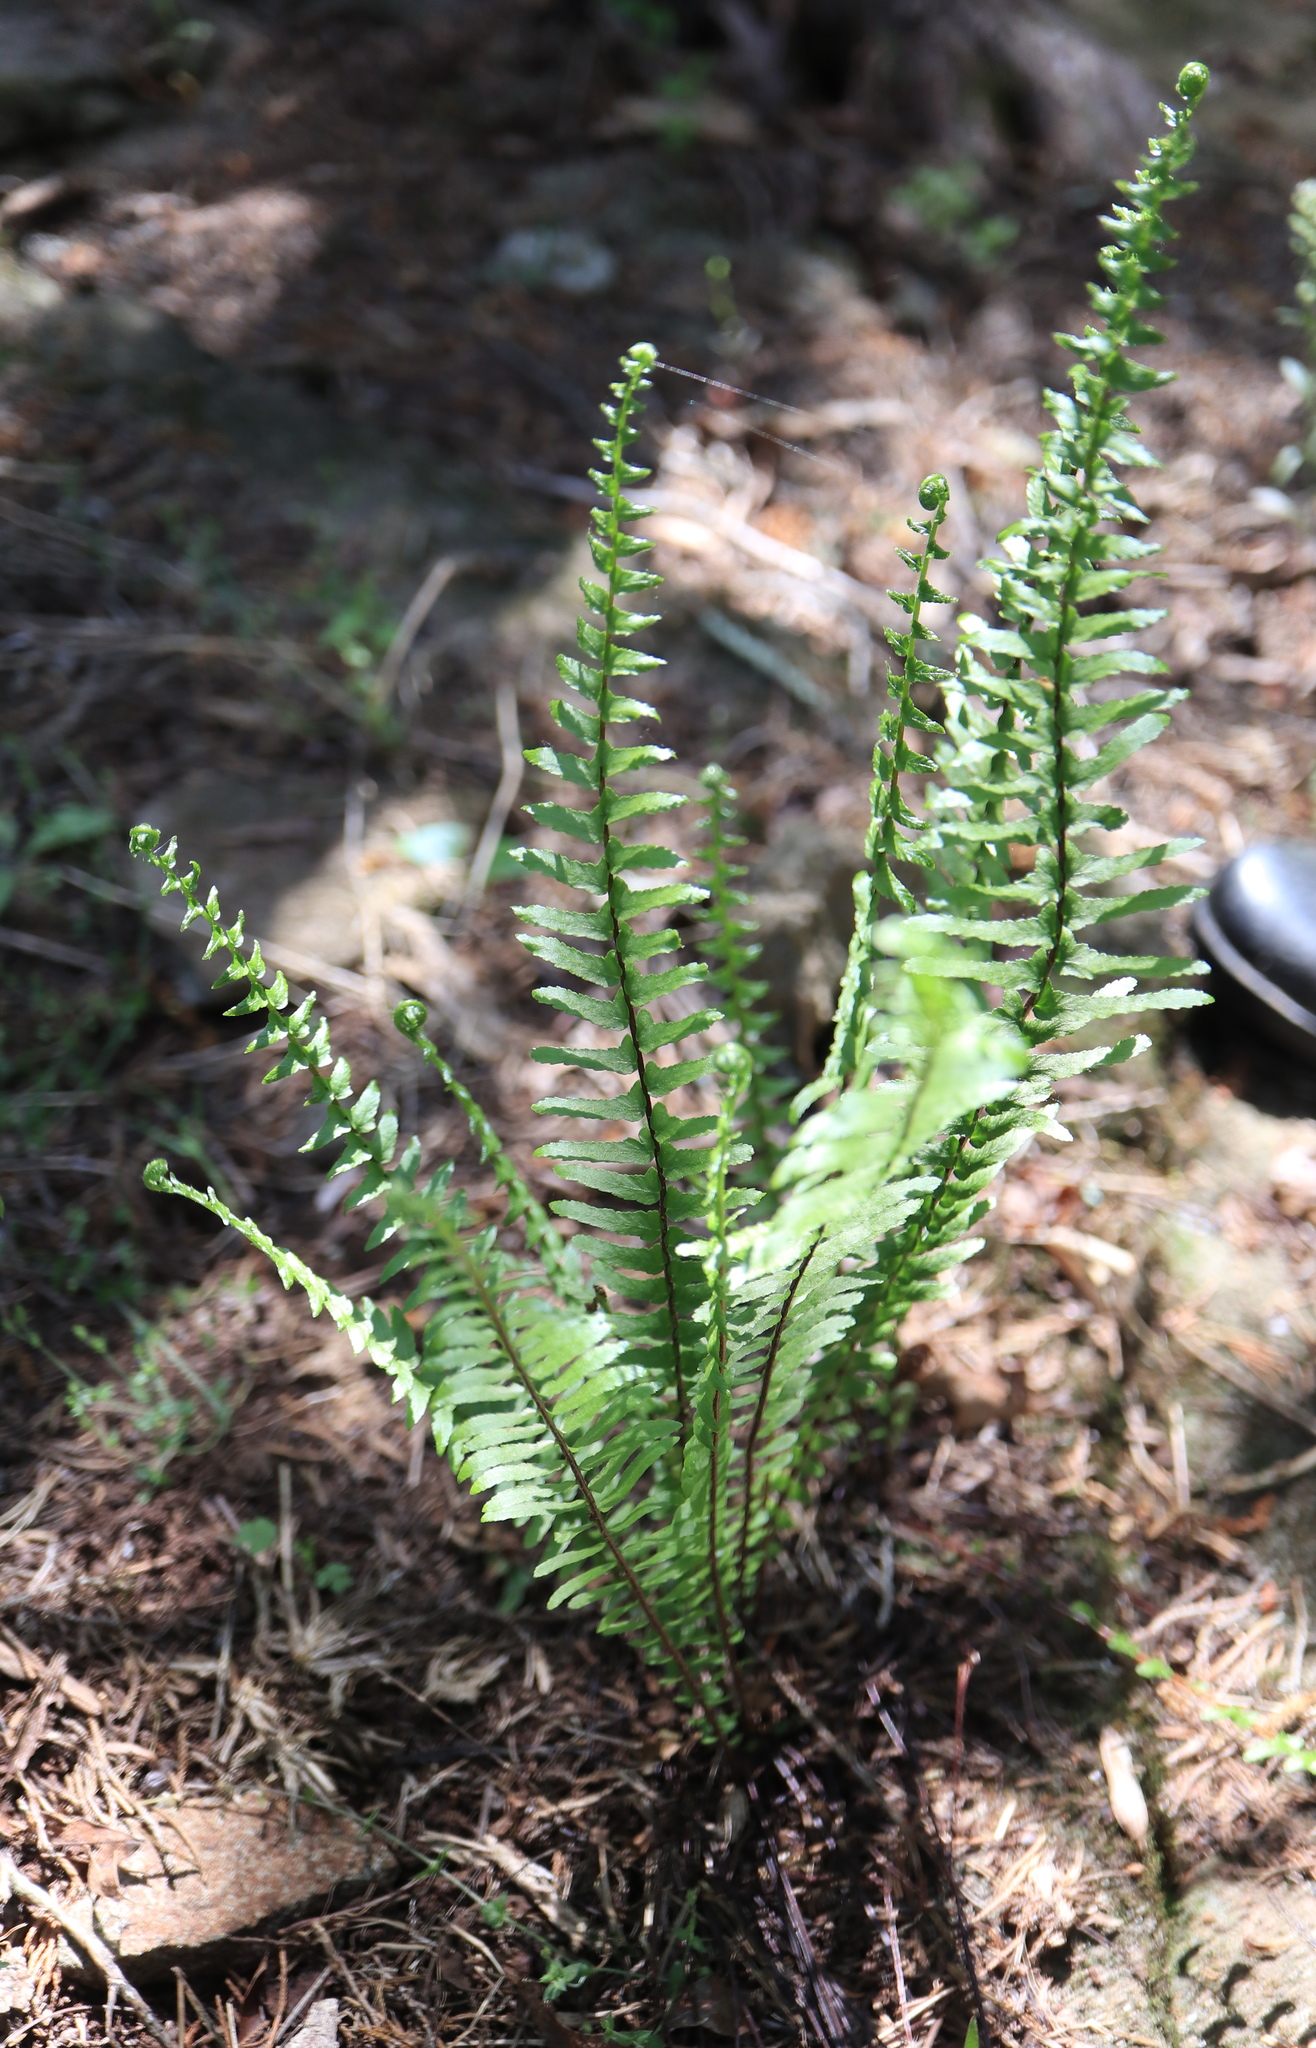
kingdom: Plantae
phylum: Tracheophyta
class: Polypodiopsida
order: Polypodiales
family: Aspleniaceae
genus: Asplenium
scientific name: Asplenium platyneuron
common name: Ebony spleenwort
